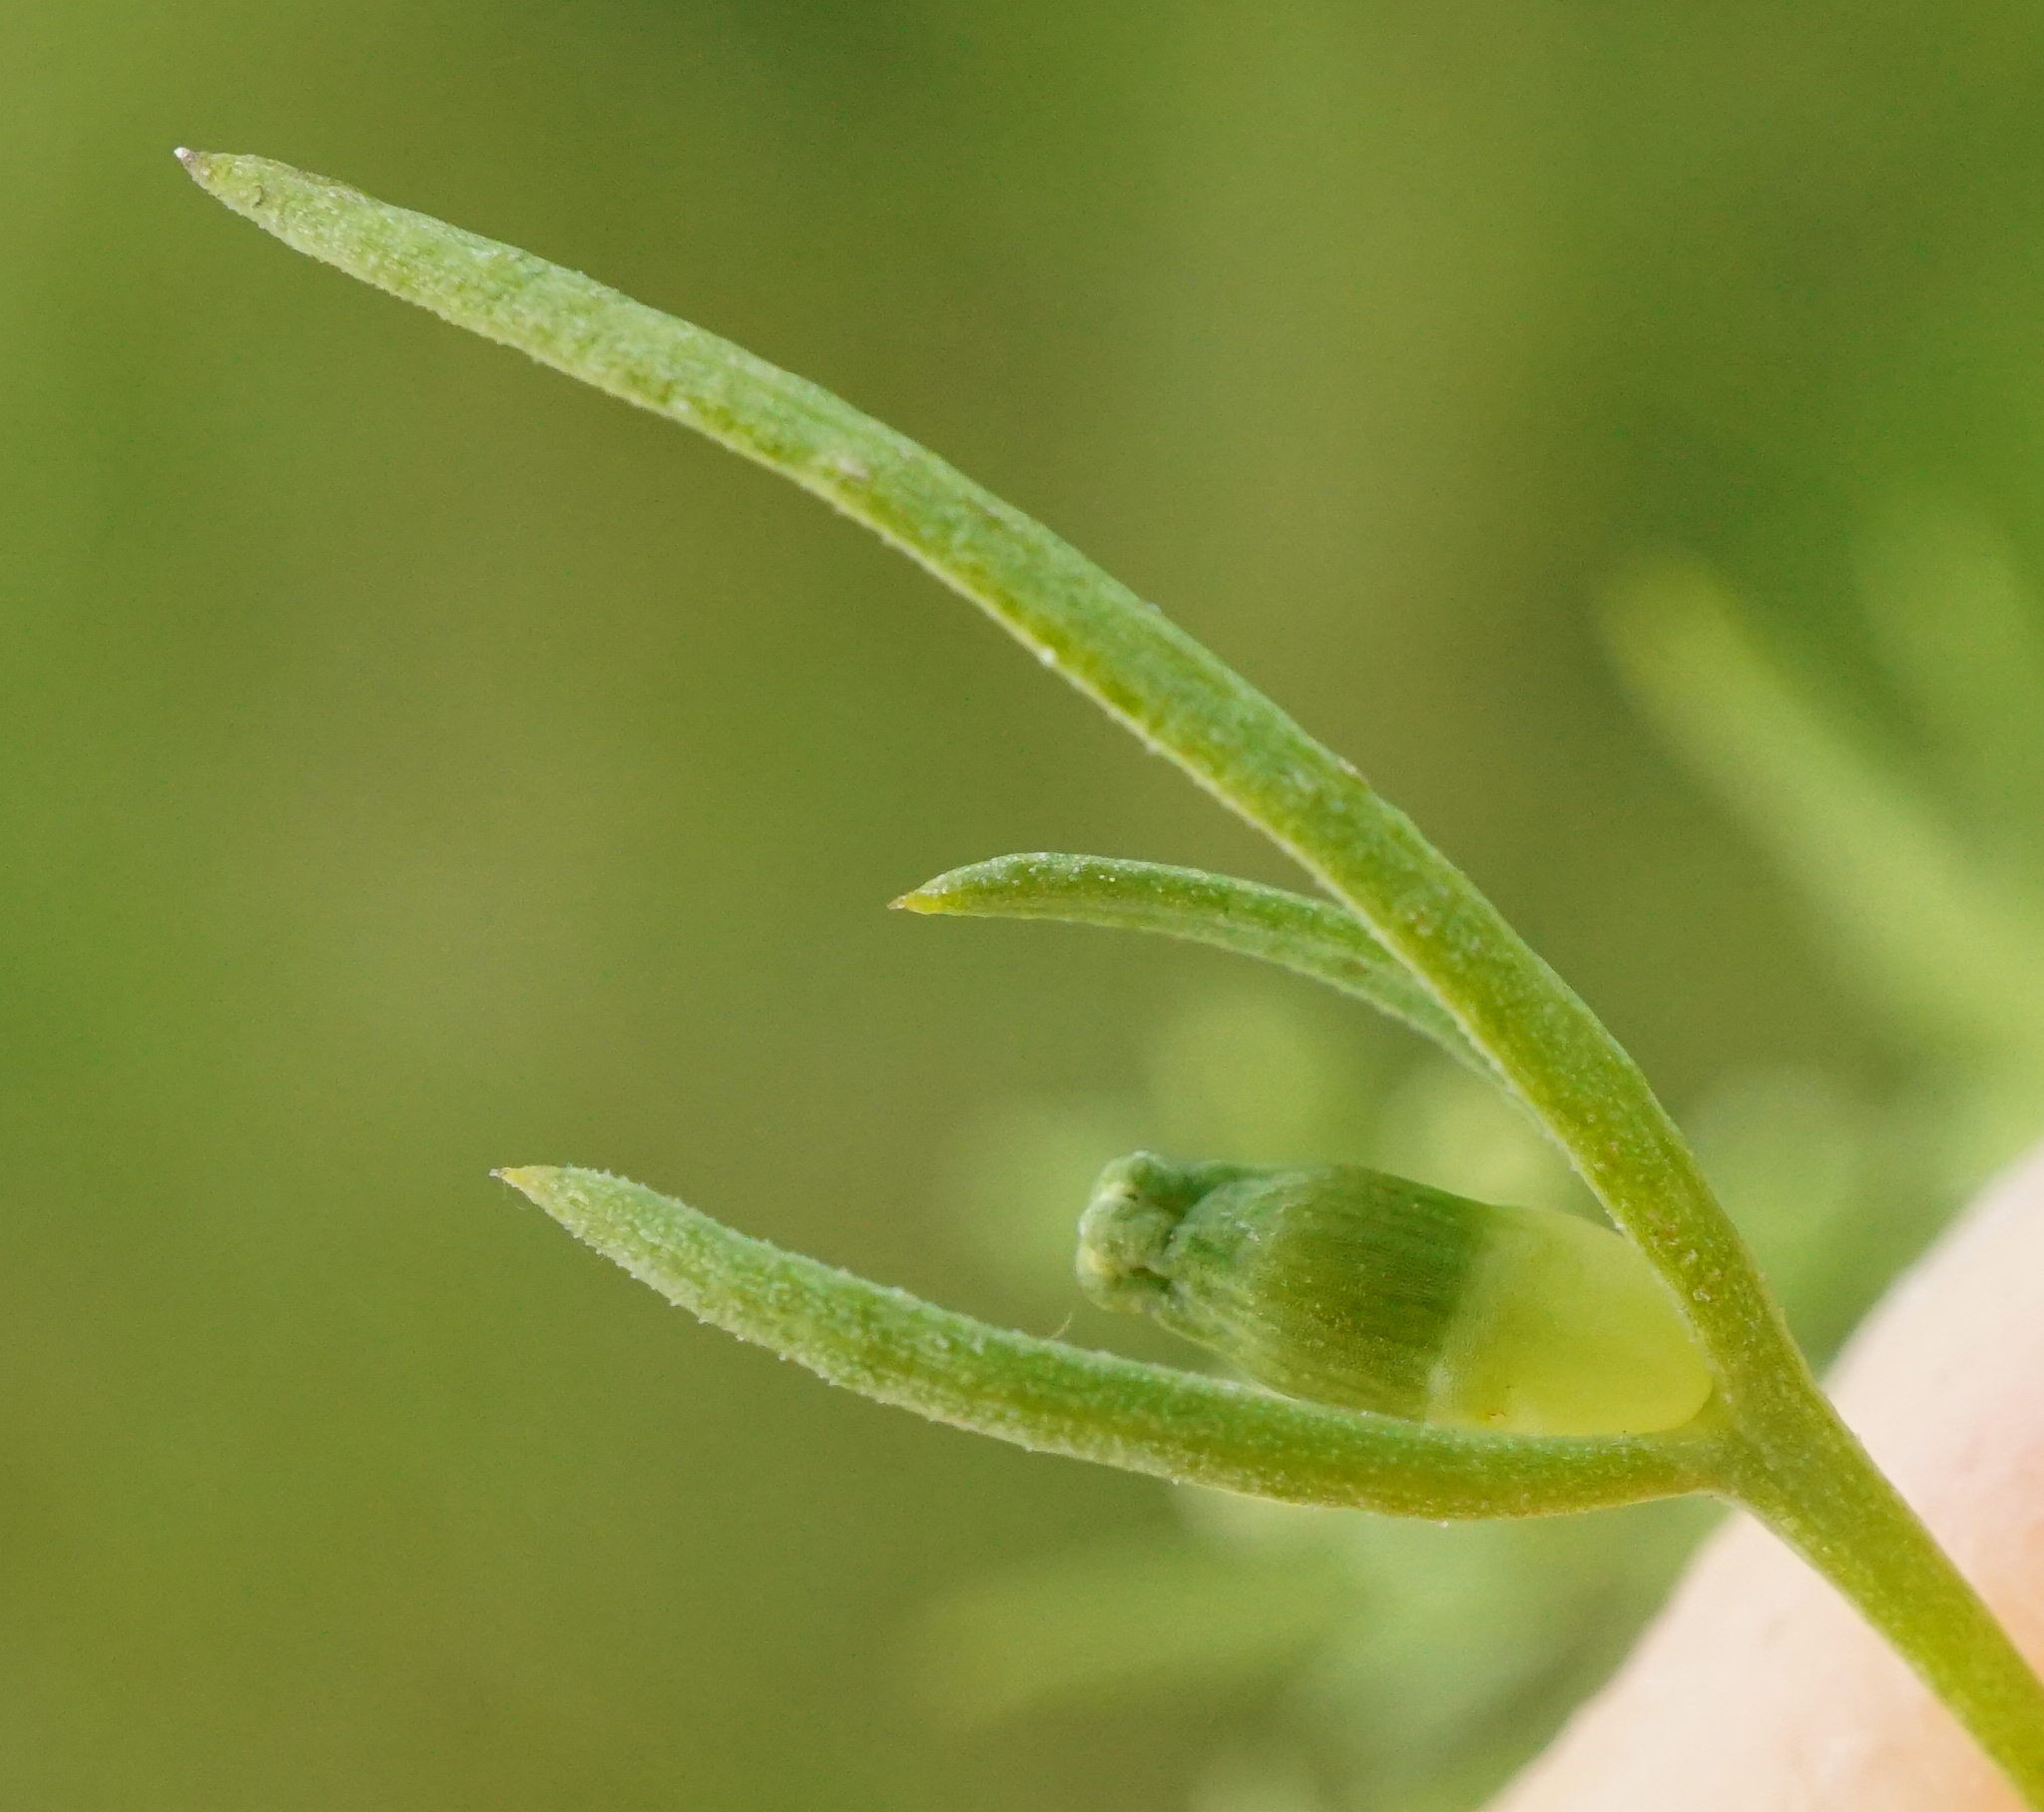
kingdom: Plantae
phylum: Tracheophyta
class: Magnoliopsida
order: Santalales
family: Thesiaceae
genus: Thesium
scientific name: Thesium ramosum
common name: Field thesium
